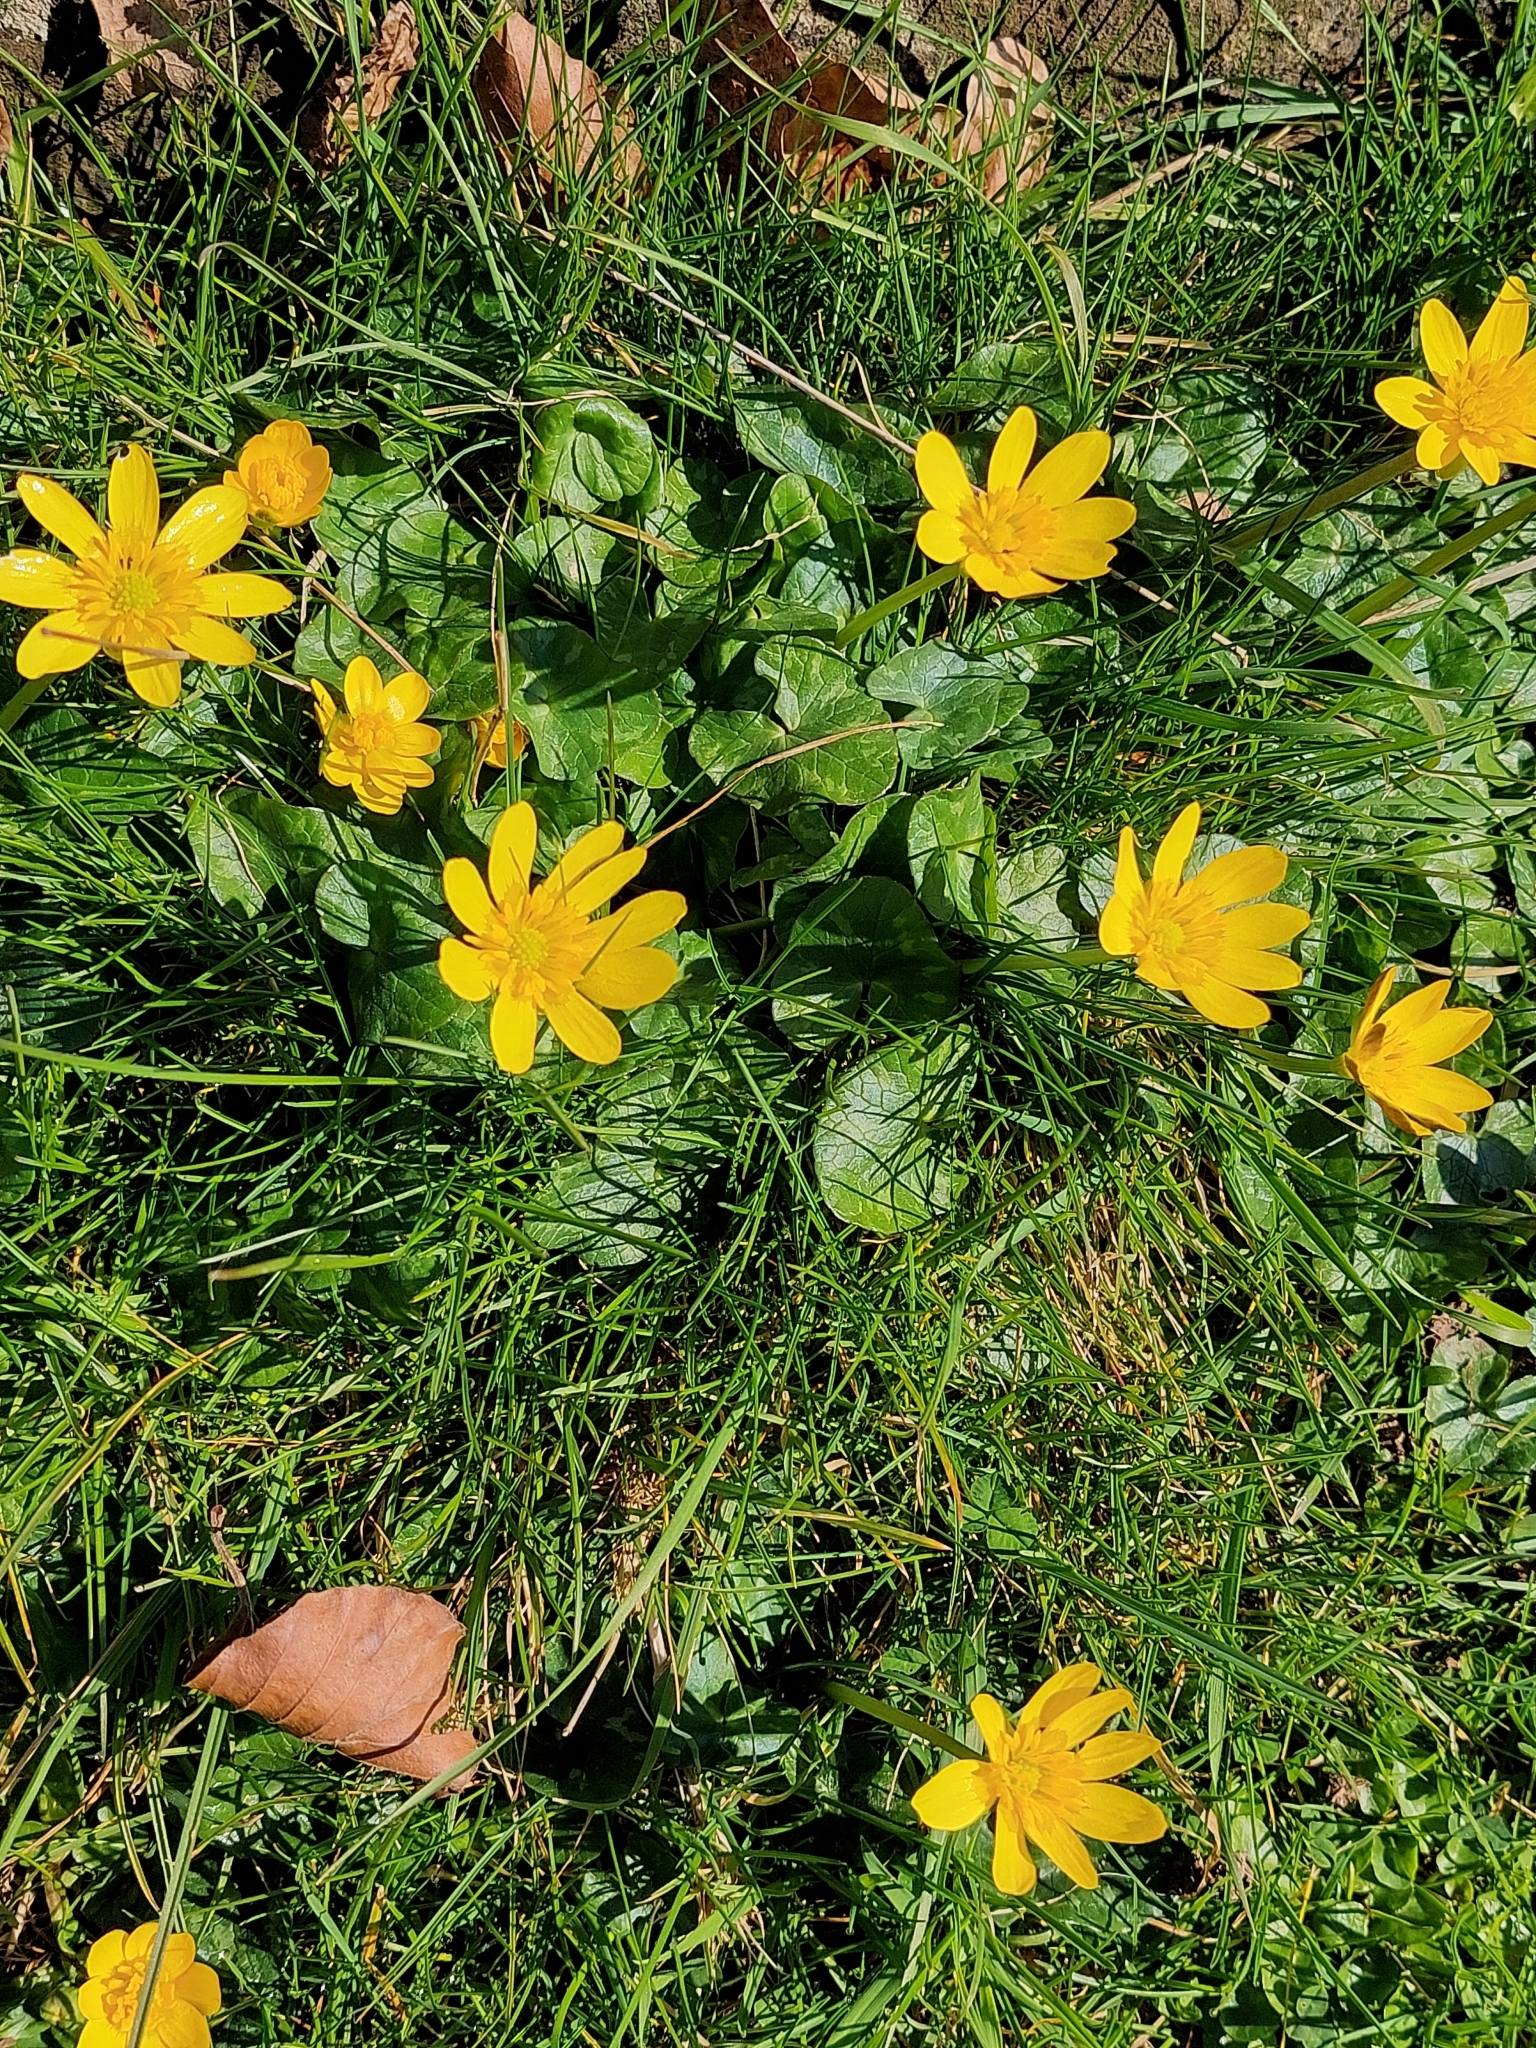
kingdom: Plantae
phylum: Tracheophyta
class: Magnoliopsida
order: Ranunculales
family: Ranunculaceae
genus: Ficaria
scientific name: Ficaria verna
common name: Lesser celandine
